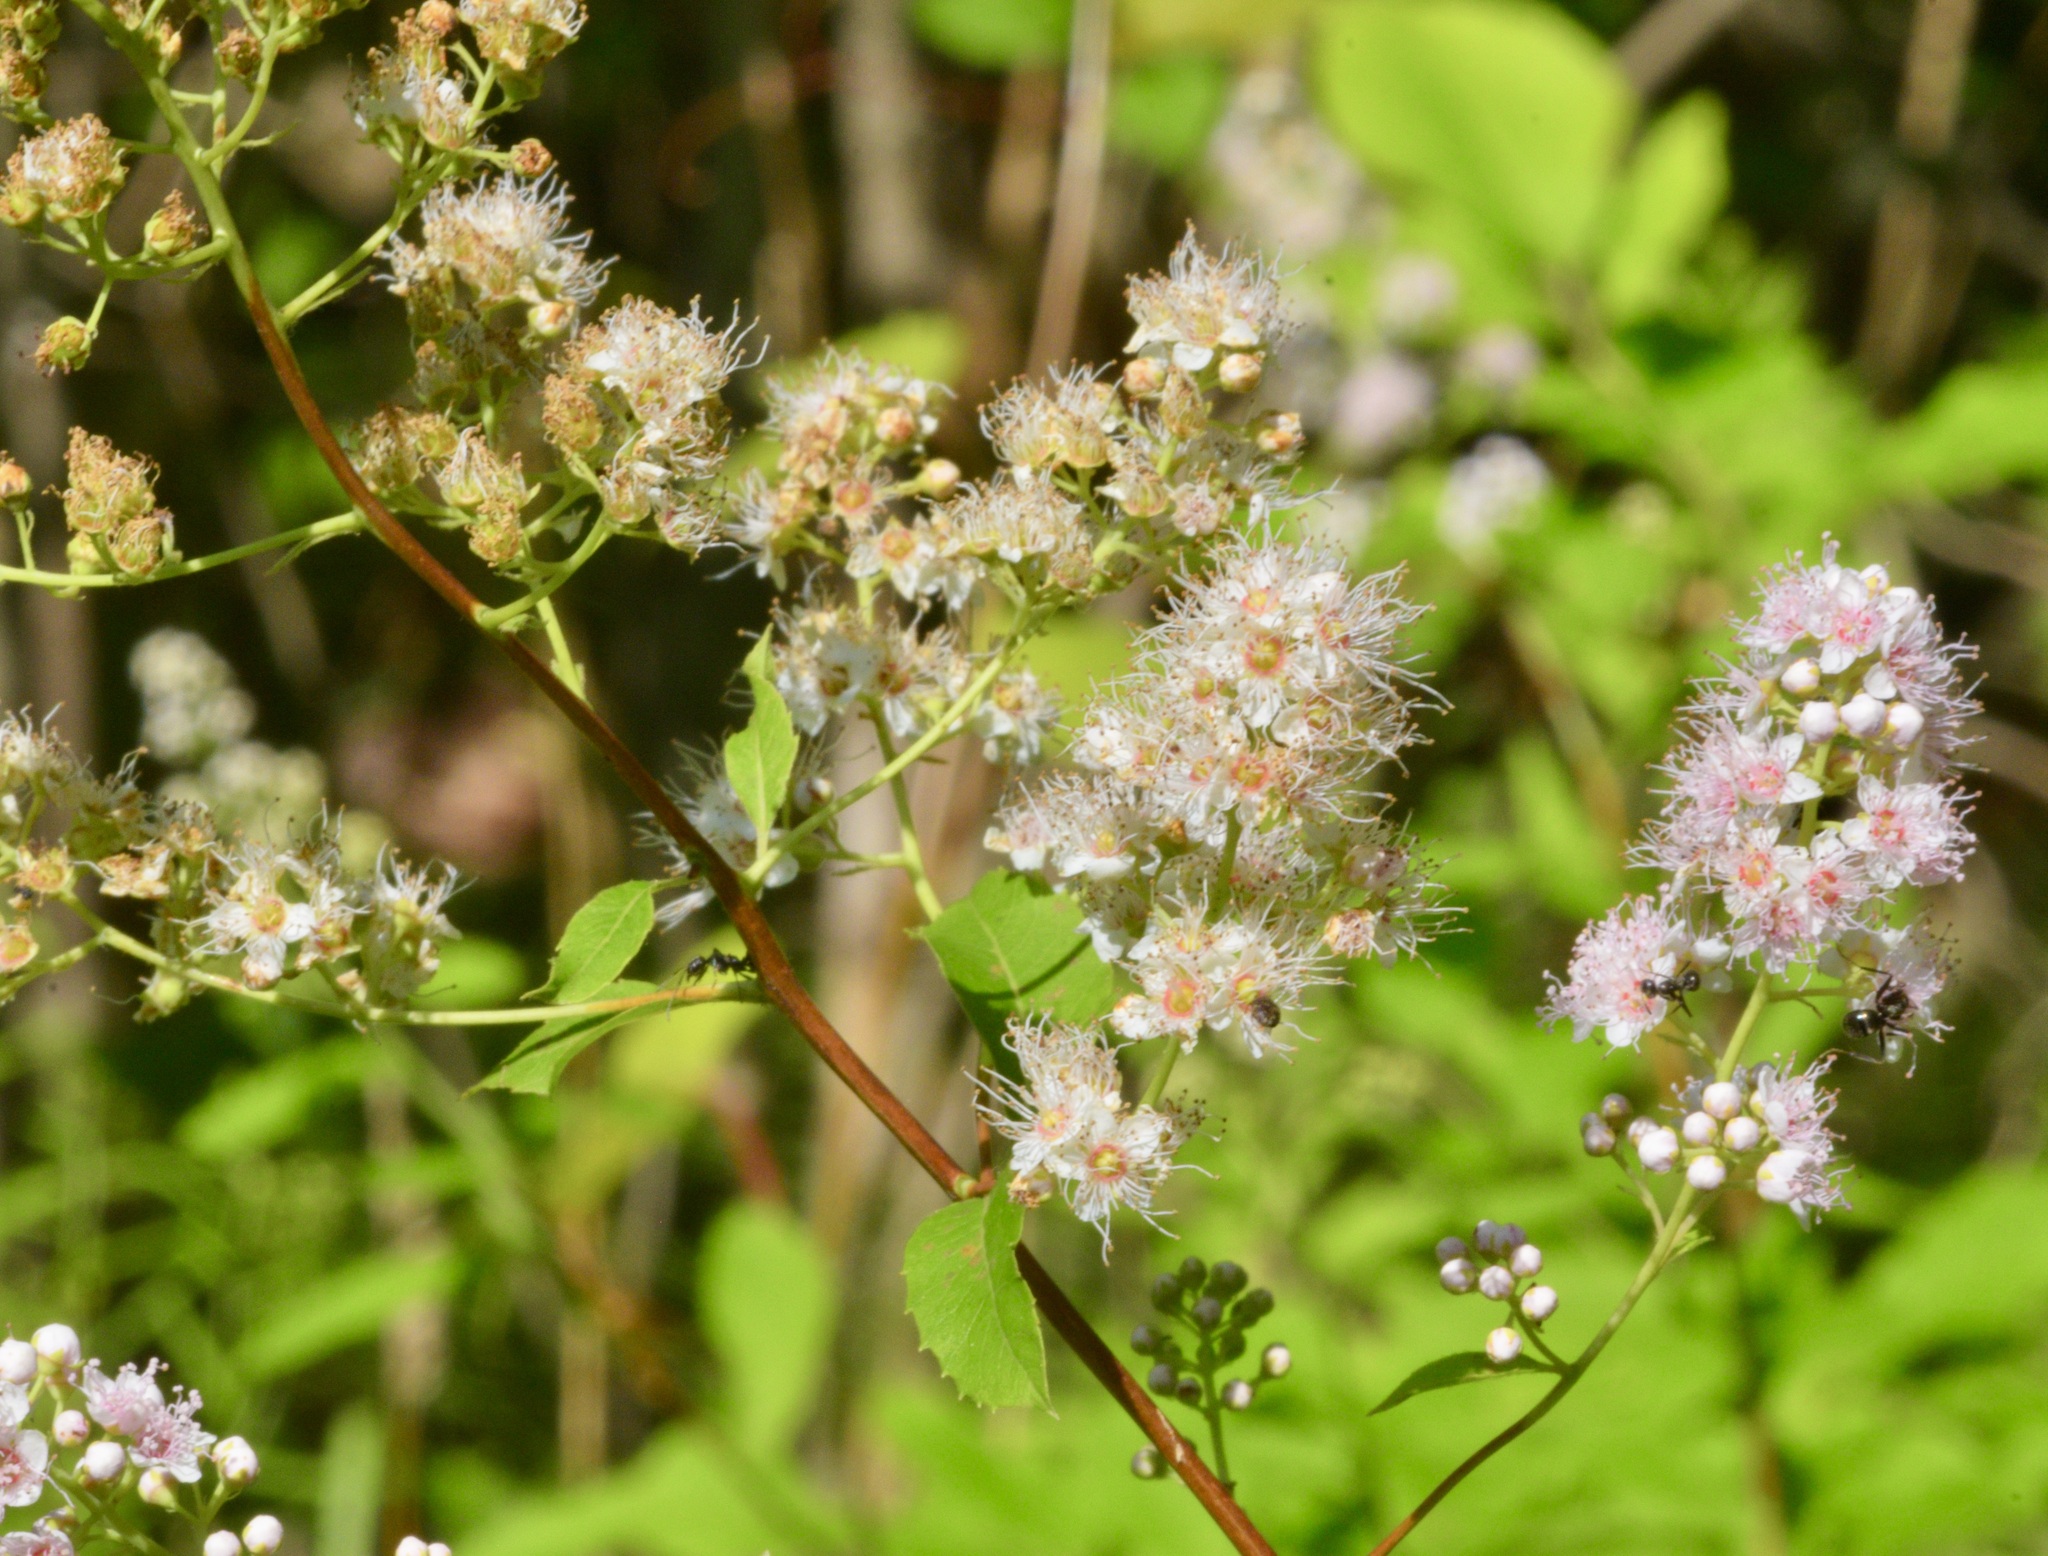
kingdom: Plantae
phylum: Tracheophyta
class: Magnoliopsida
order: Rosales
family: Rosaceae
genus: Spiraea
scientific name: Spiraea alba
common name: Pale bridewort
